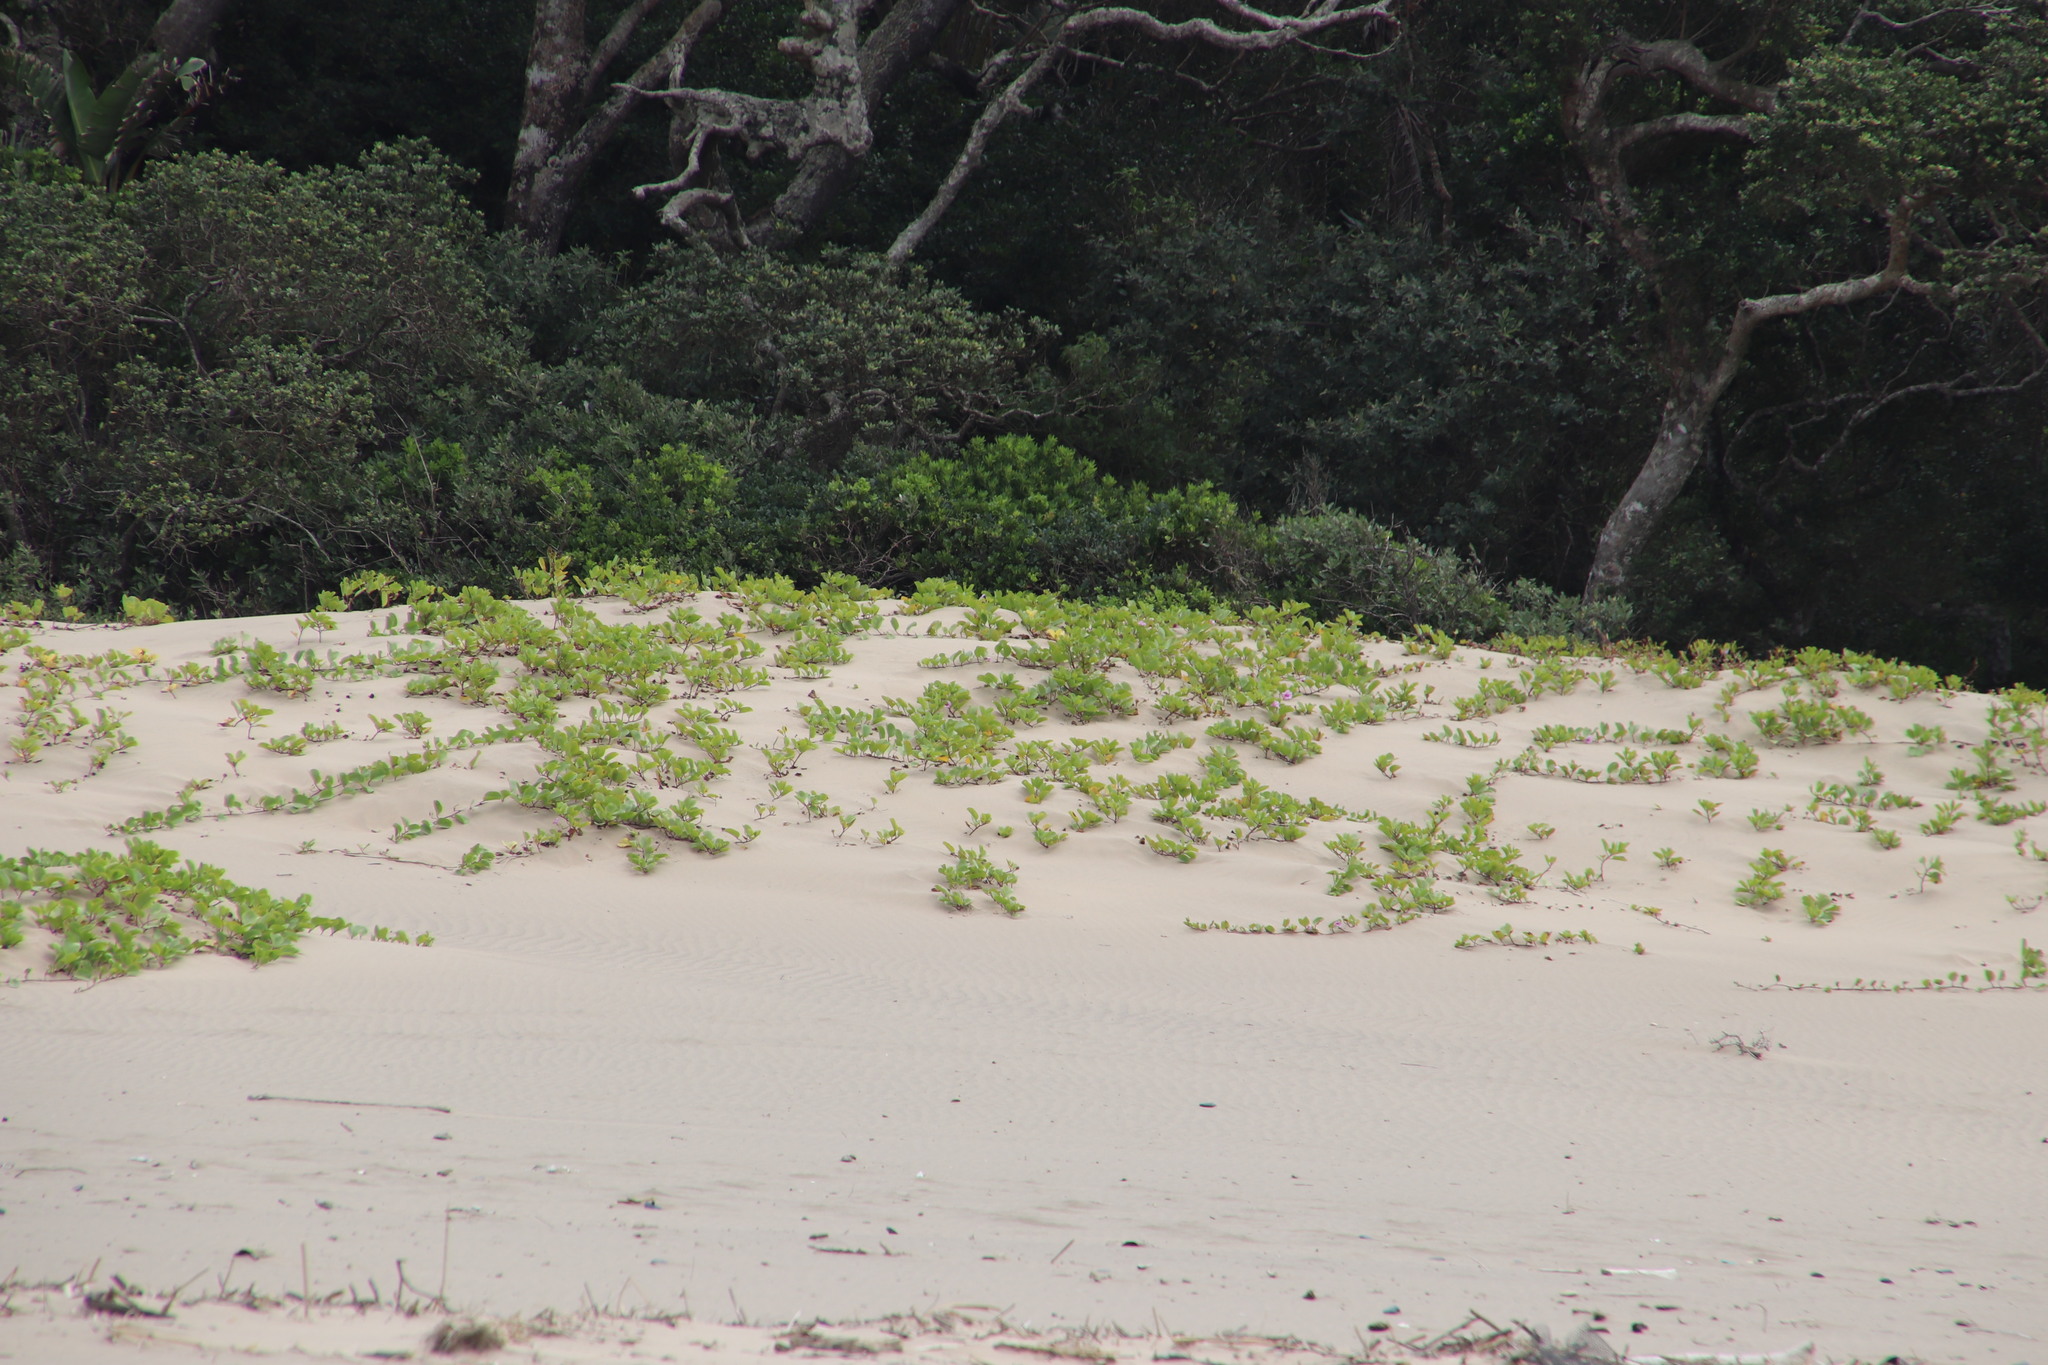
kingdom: Plantae
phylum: Tracheophyta
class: Magnoliopsida
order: Solanales
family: Convolvulaceae
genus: Ipomoea
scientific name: Ipomoea pes-caprae
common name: Beach morning glory
